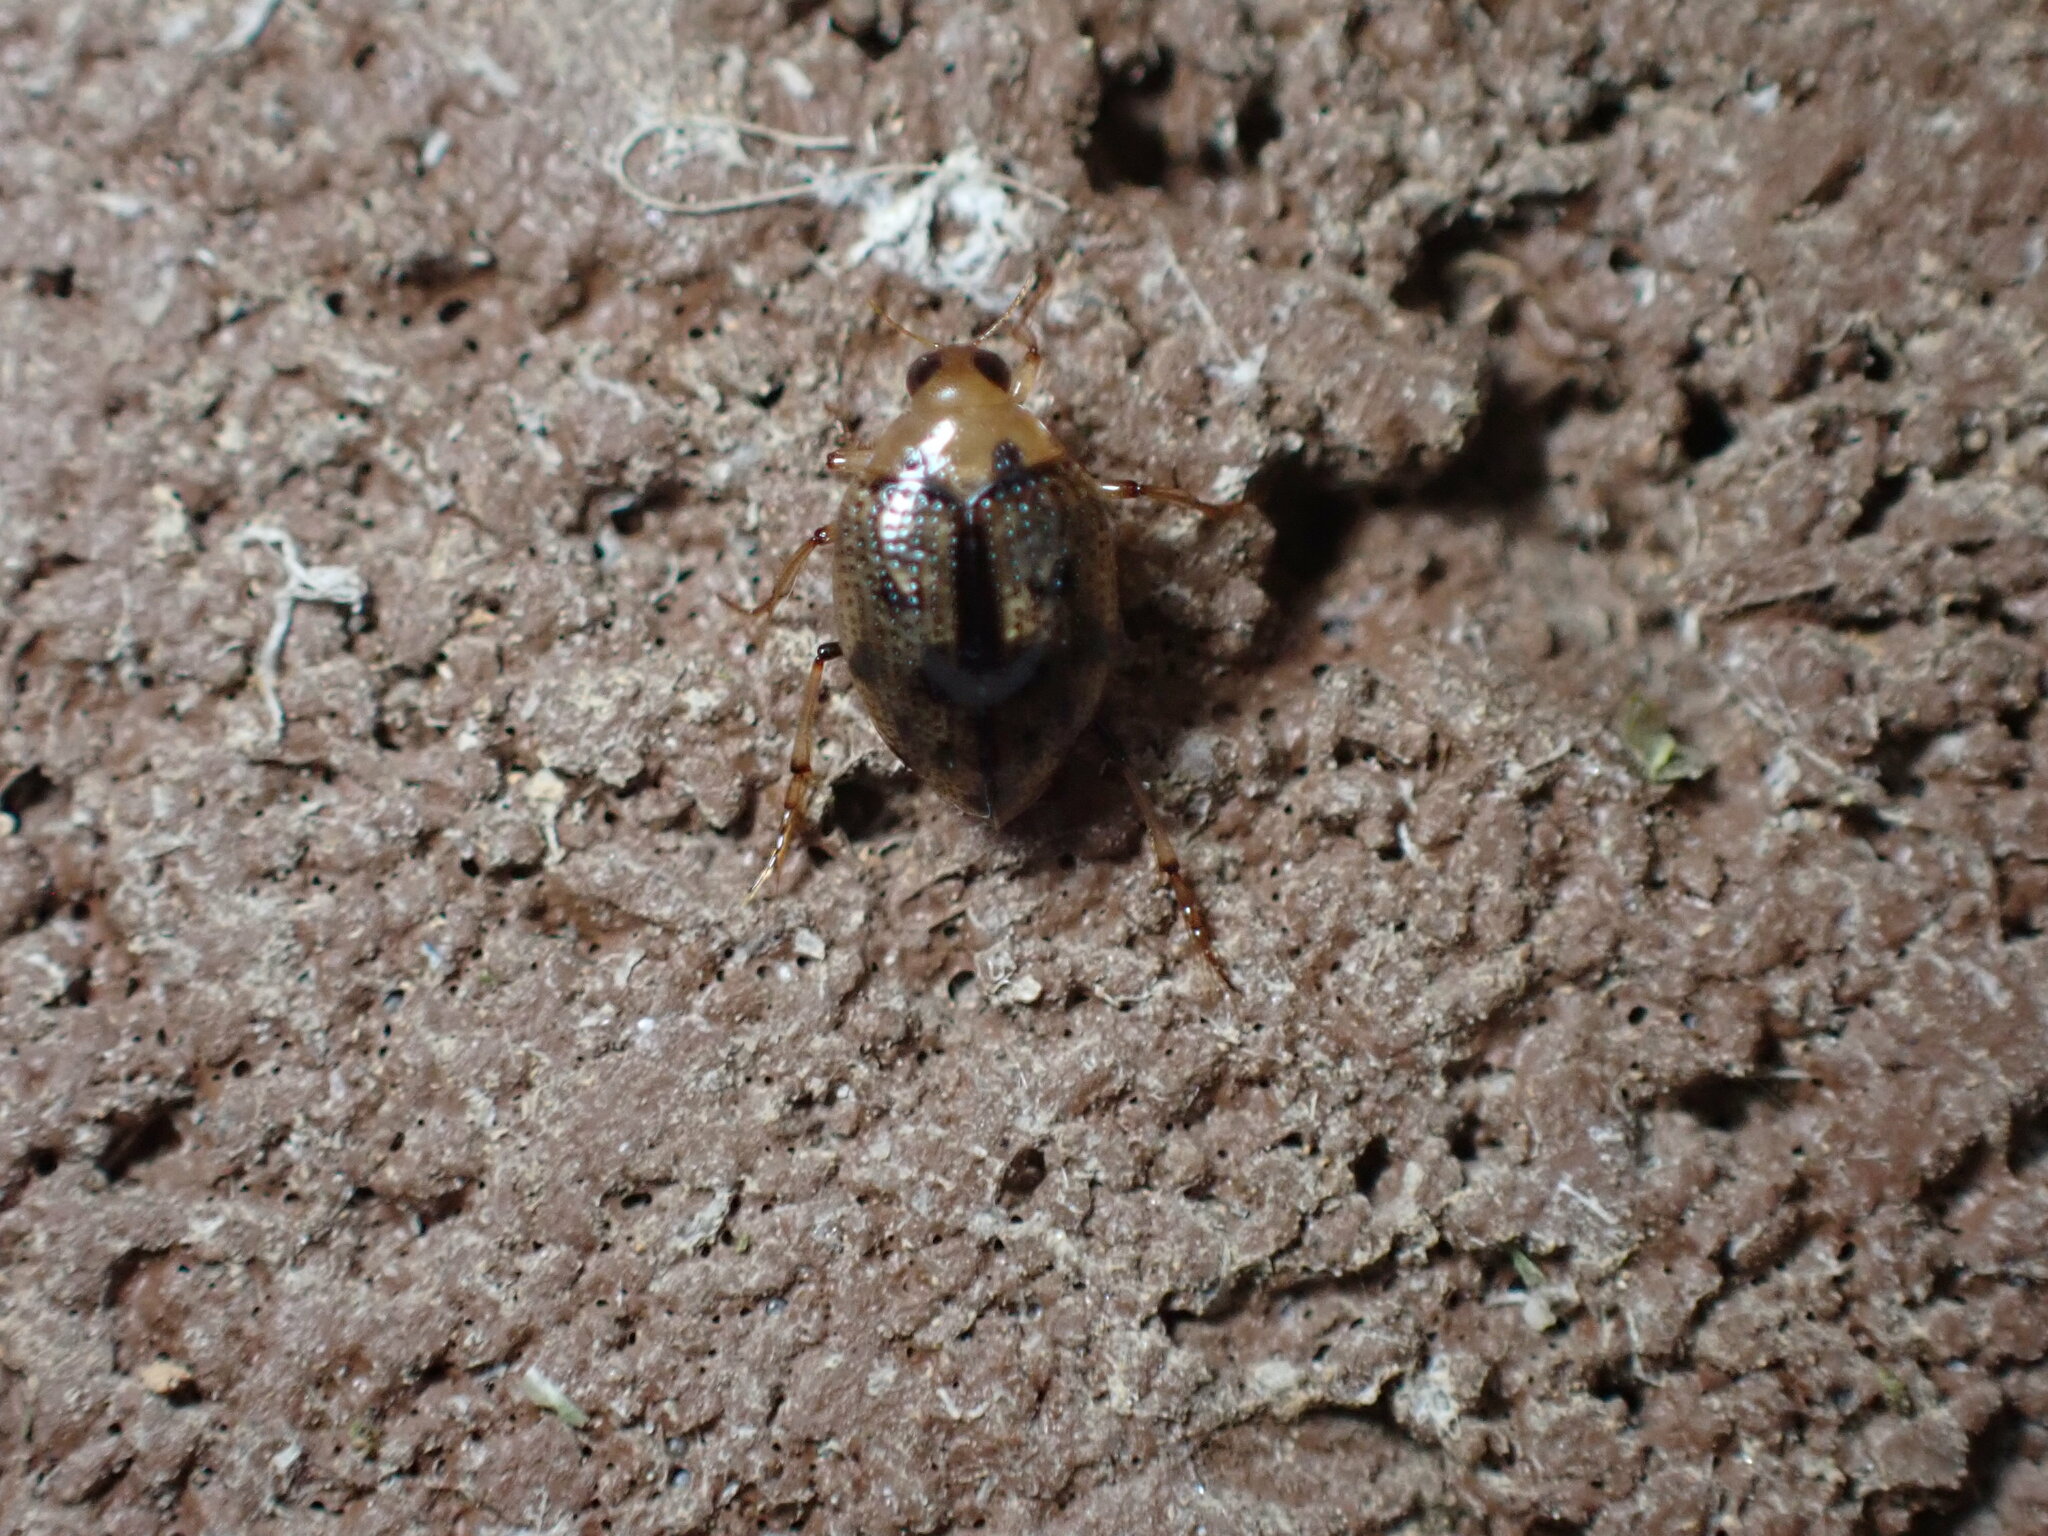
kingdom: Animalia
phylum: Arthropoda
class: Insecta
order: Coleoptera
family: Haliplidae
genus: Peltodytes
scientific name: Peltodytes
